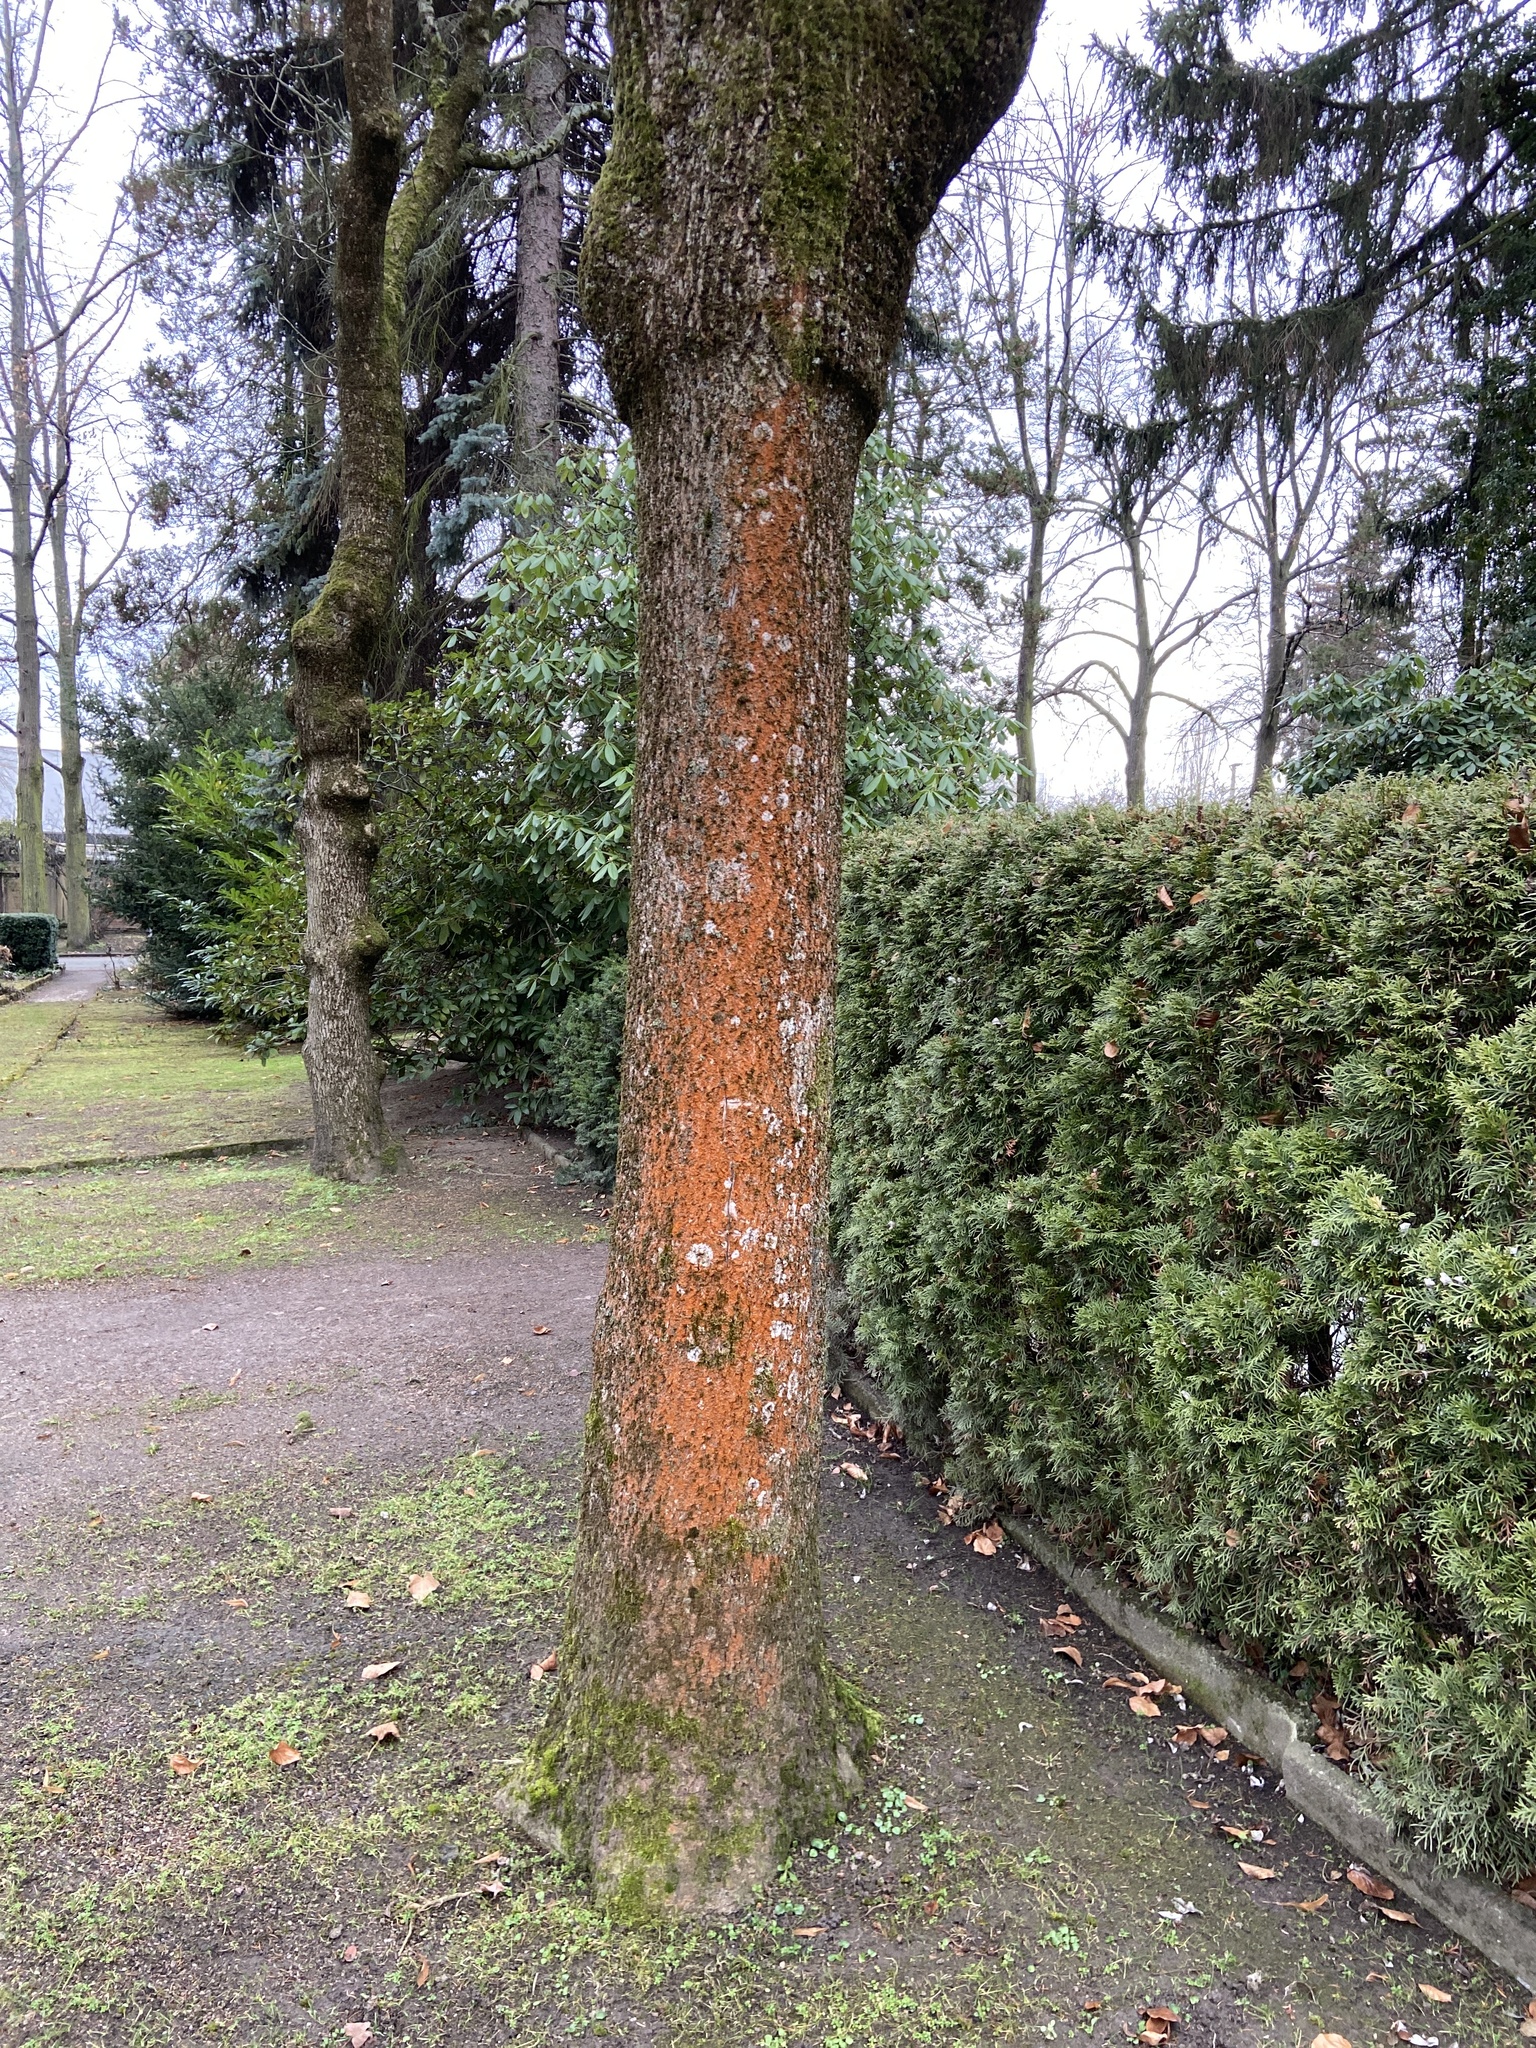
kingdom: Plantae
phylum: Chlorophyta
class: Ulvophyceae
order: Trentepohliales
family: Trentepohliaceae
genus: Trentepohlia
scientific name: Trentepohlia aurea
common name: Orange rock hair
